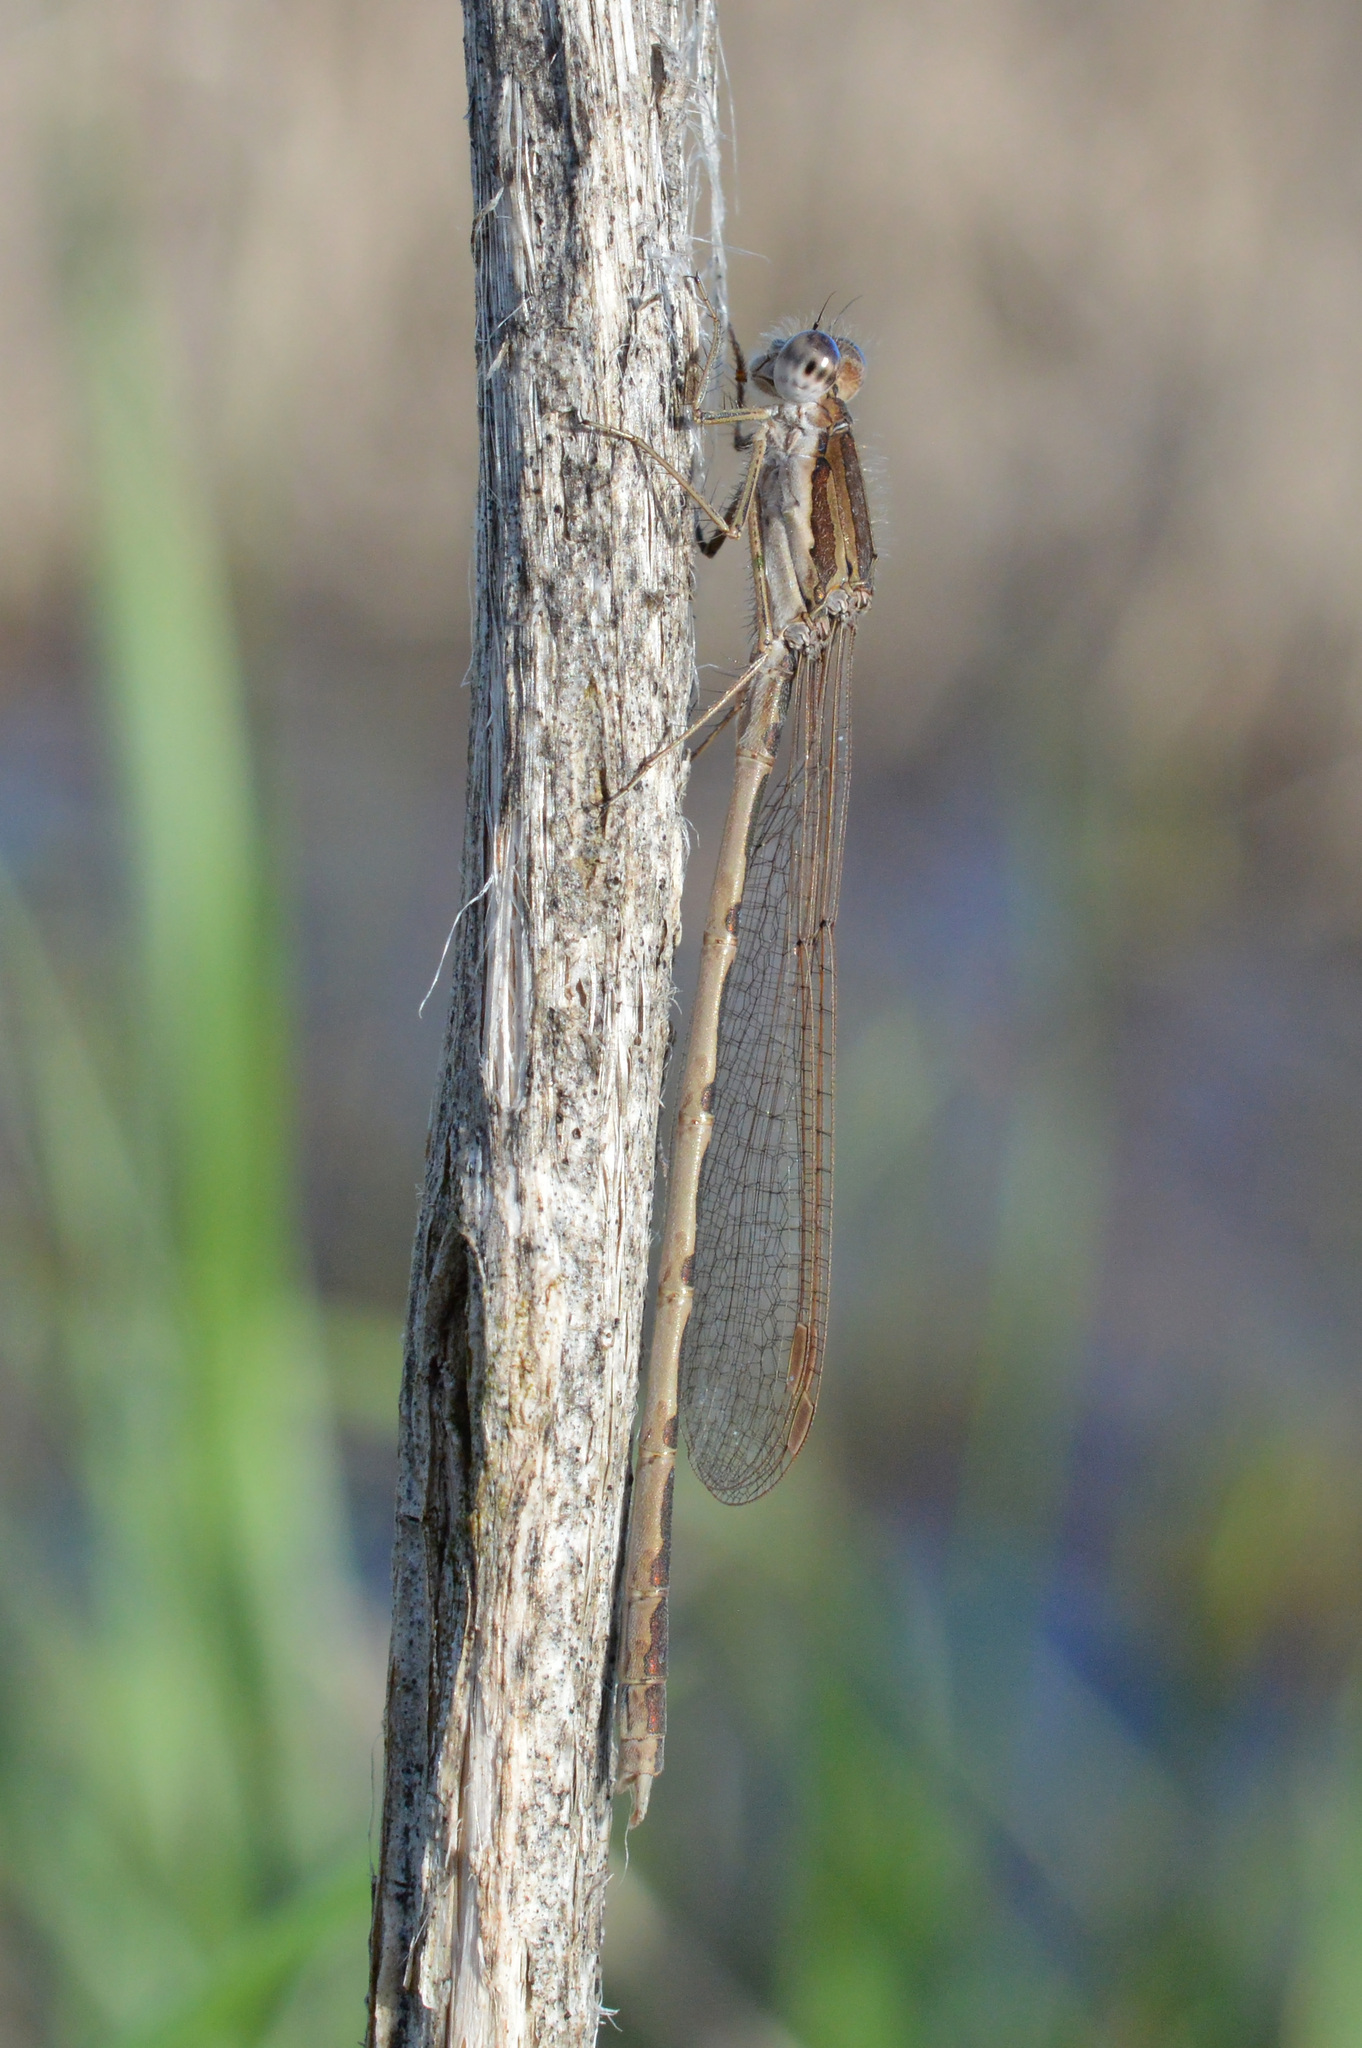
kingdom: Animalia
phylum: Arthropoda
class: Insecta
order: Odonata
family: Lestidae
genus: Sympecma
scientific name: Sympecma fusca
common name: Common winter damsel
